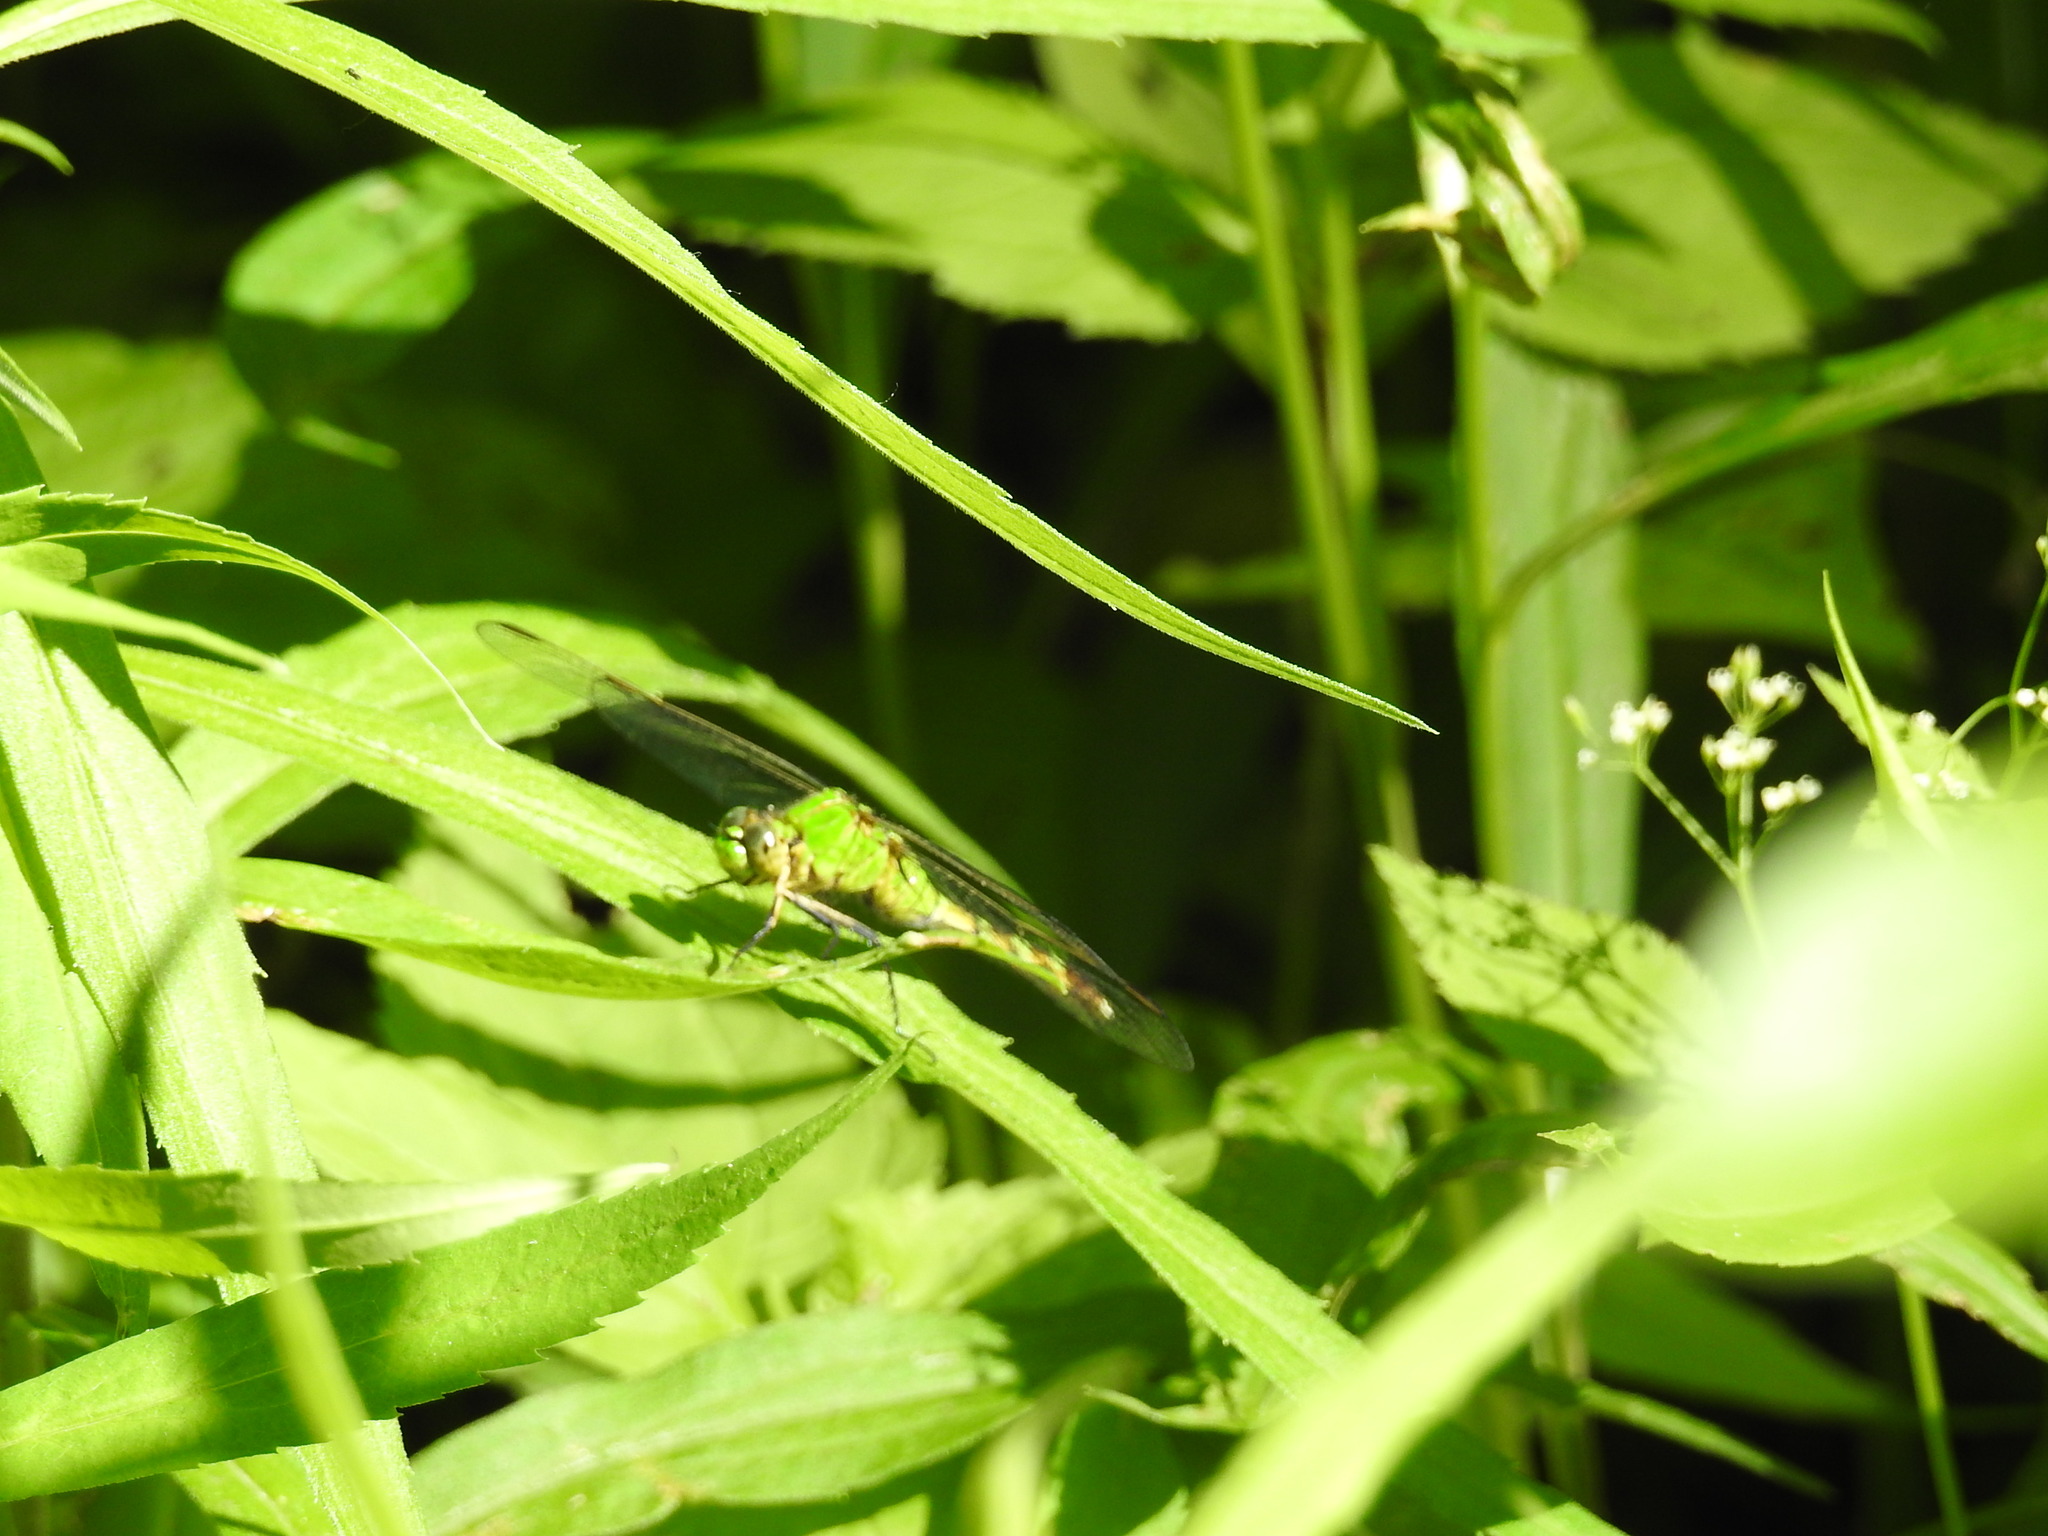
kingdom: Animalia
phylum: Arthropoda
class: Insecta
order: Odonata
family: Libellulidae
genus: Erythemis
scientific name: Erythemis simplicicollis
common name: Eastern pondhawk
